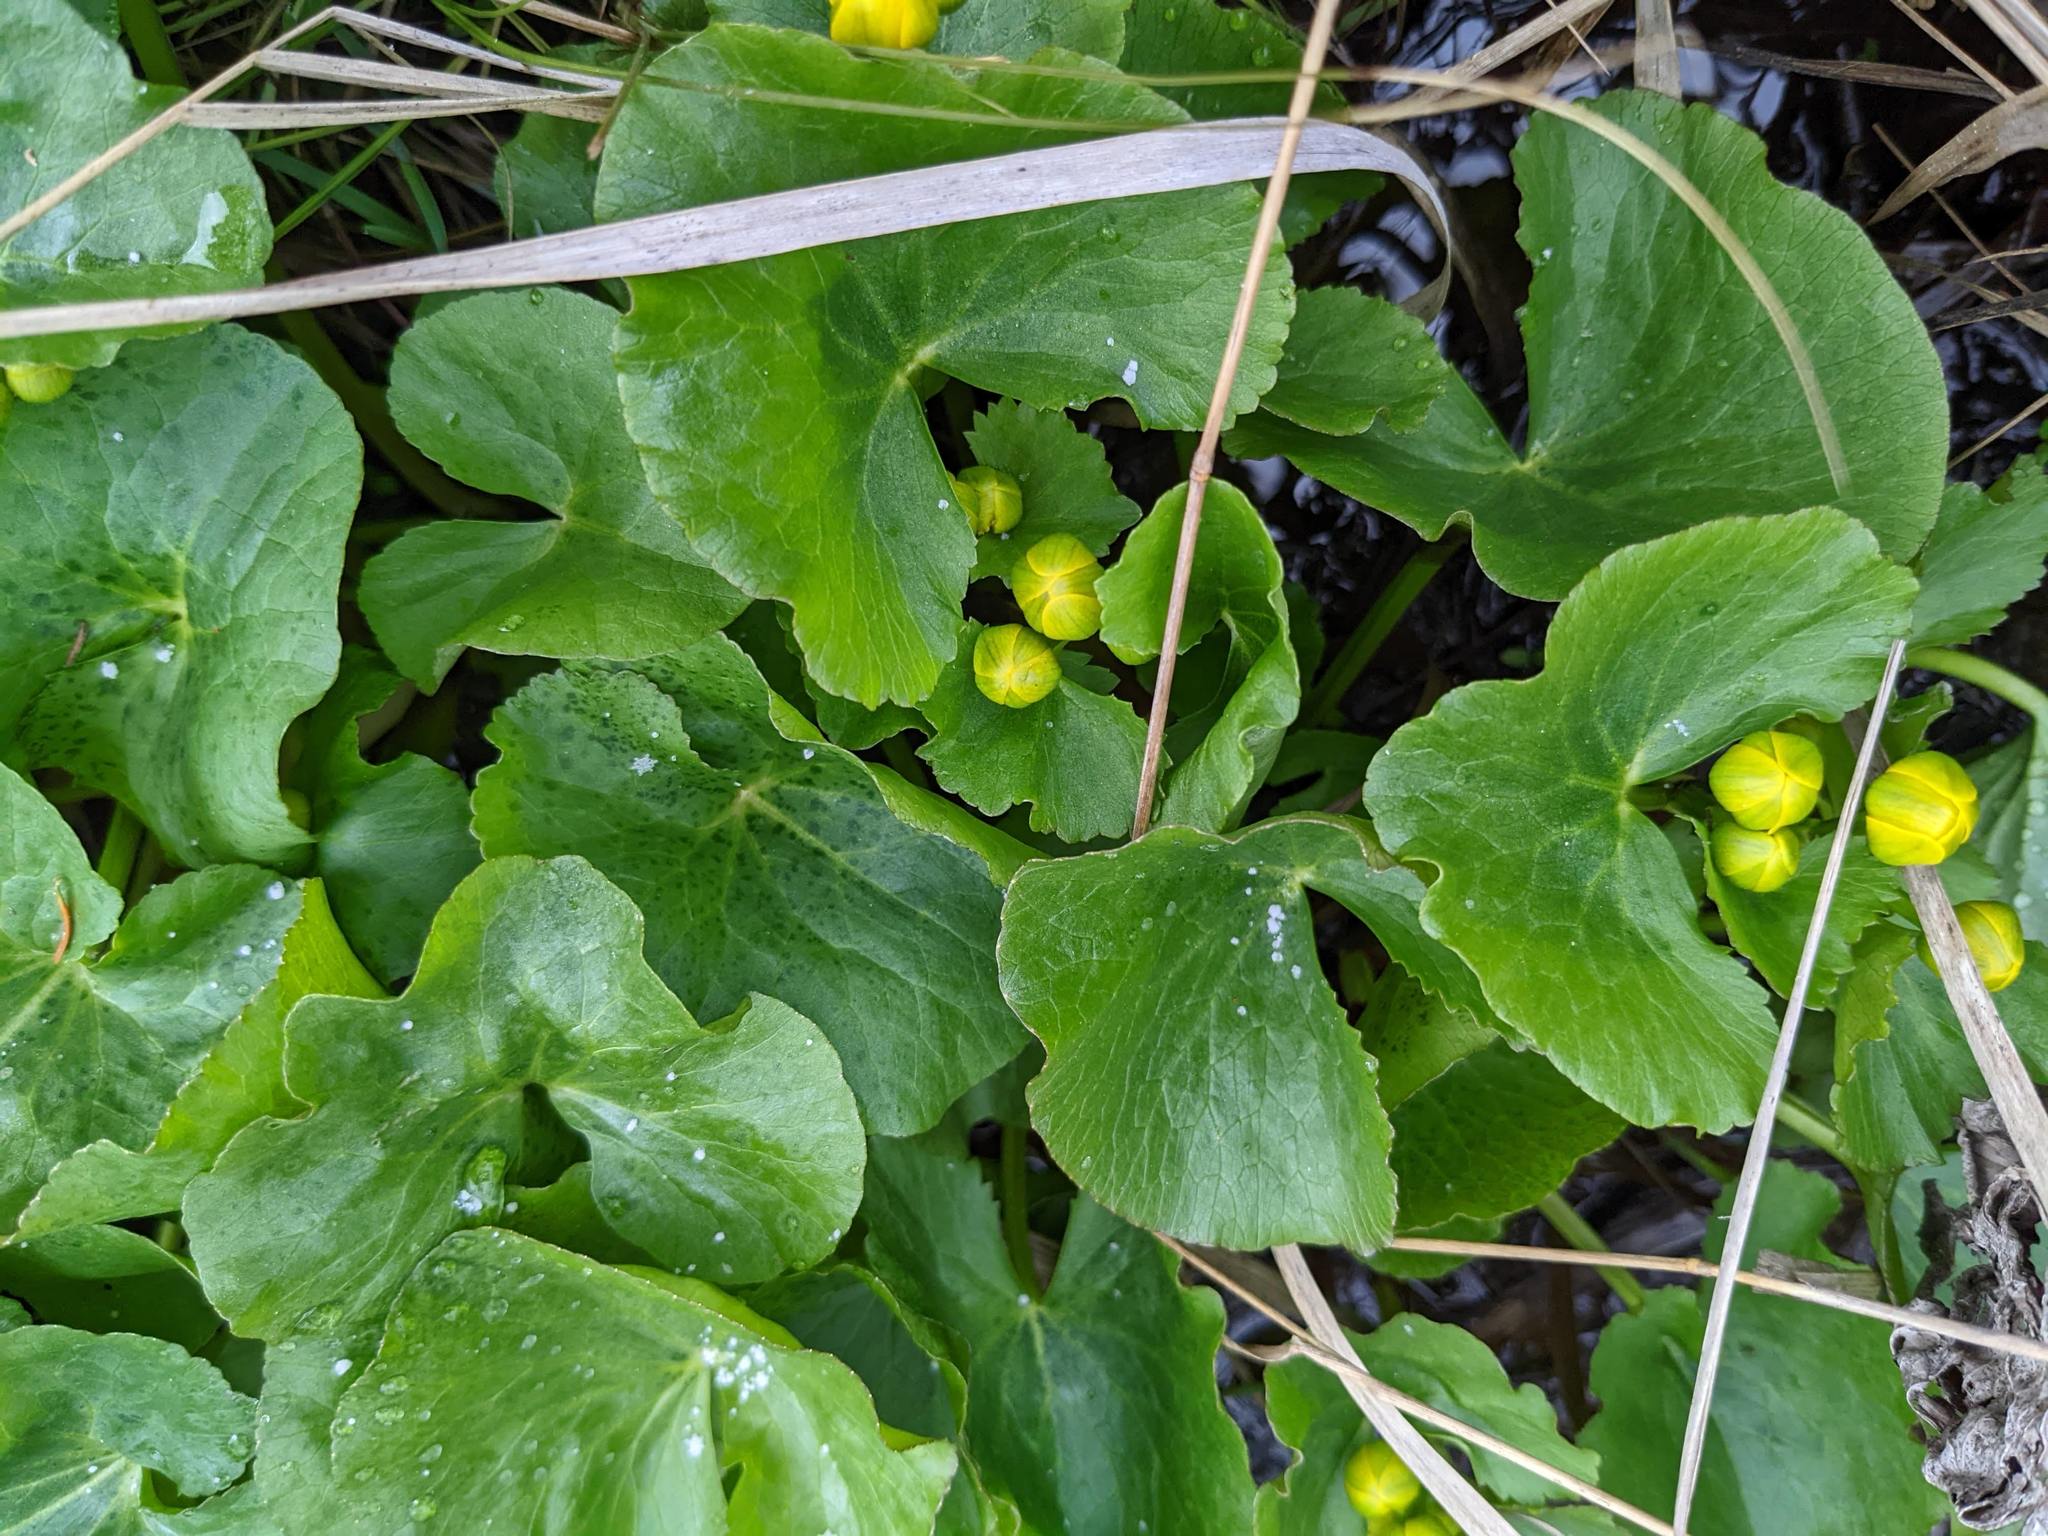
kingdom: Plantae
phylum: Tracheophyta
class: Magnoliopsida
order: Ranunculales
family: Ranunculaceae
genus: Caltha
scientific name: Caltha palustris
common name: Marsh marigold
